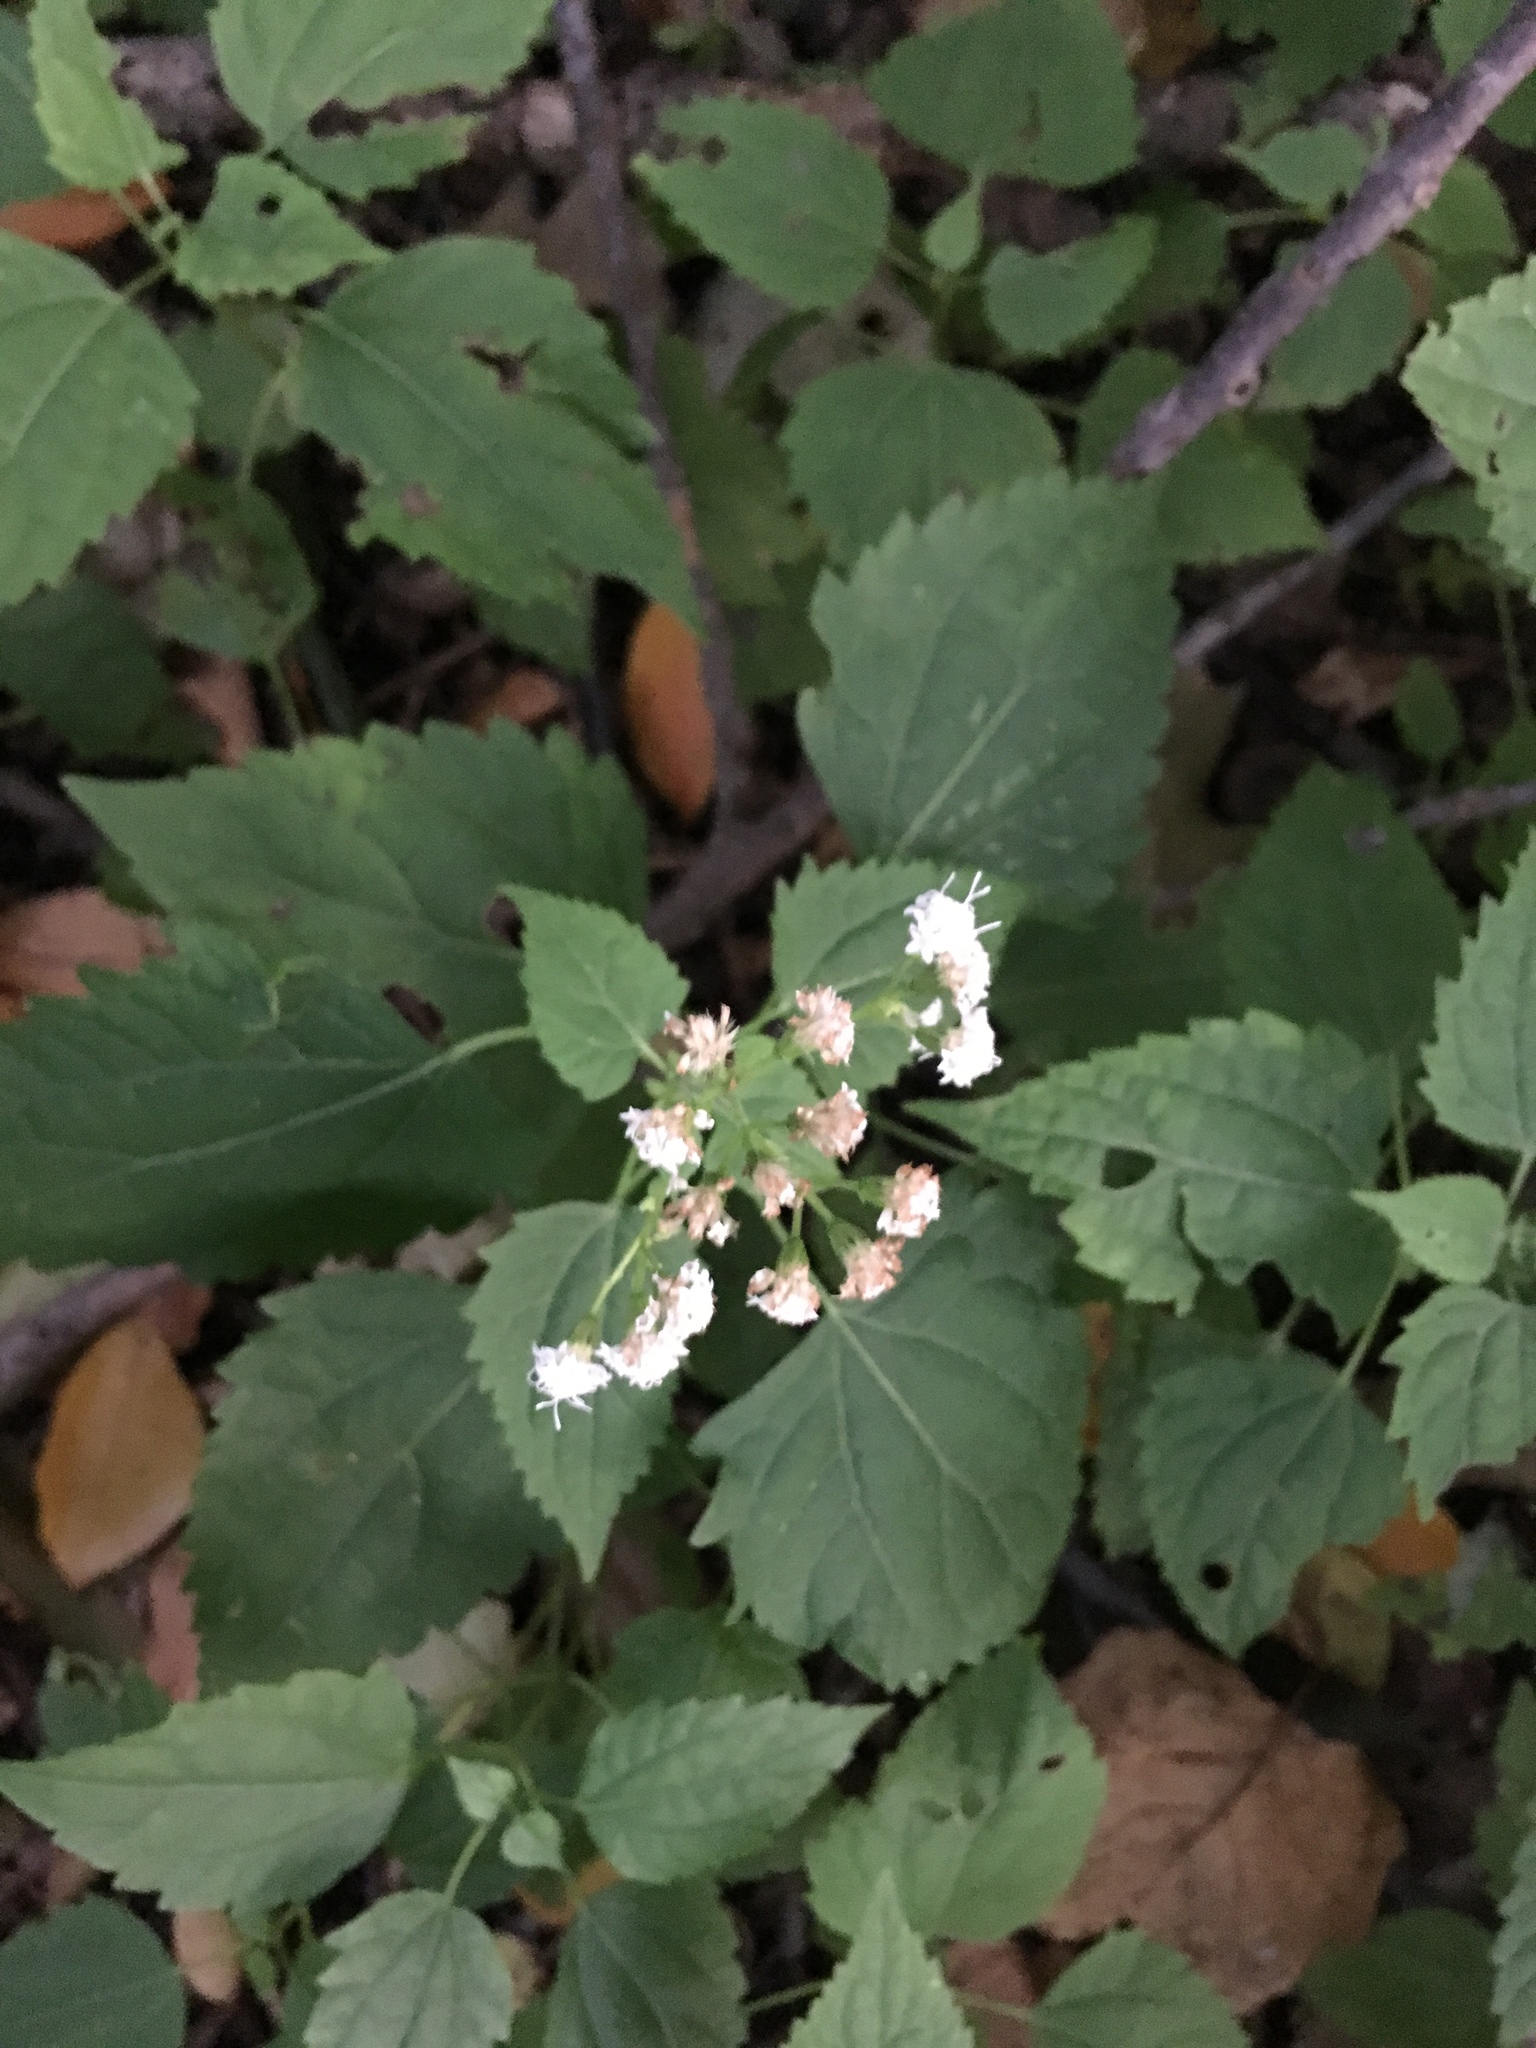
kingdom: Plantae
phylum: Tracheophyta
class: Magnoliopsida
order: Asterales
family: Asteraceae
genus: Ageratina
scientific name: Ageratina altissima
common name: White snakeroot
